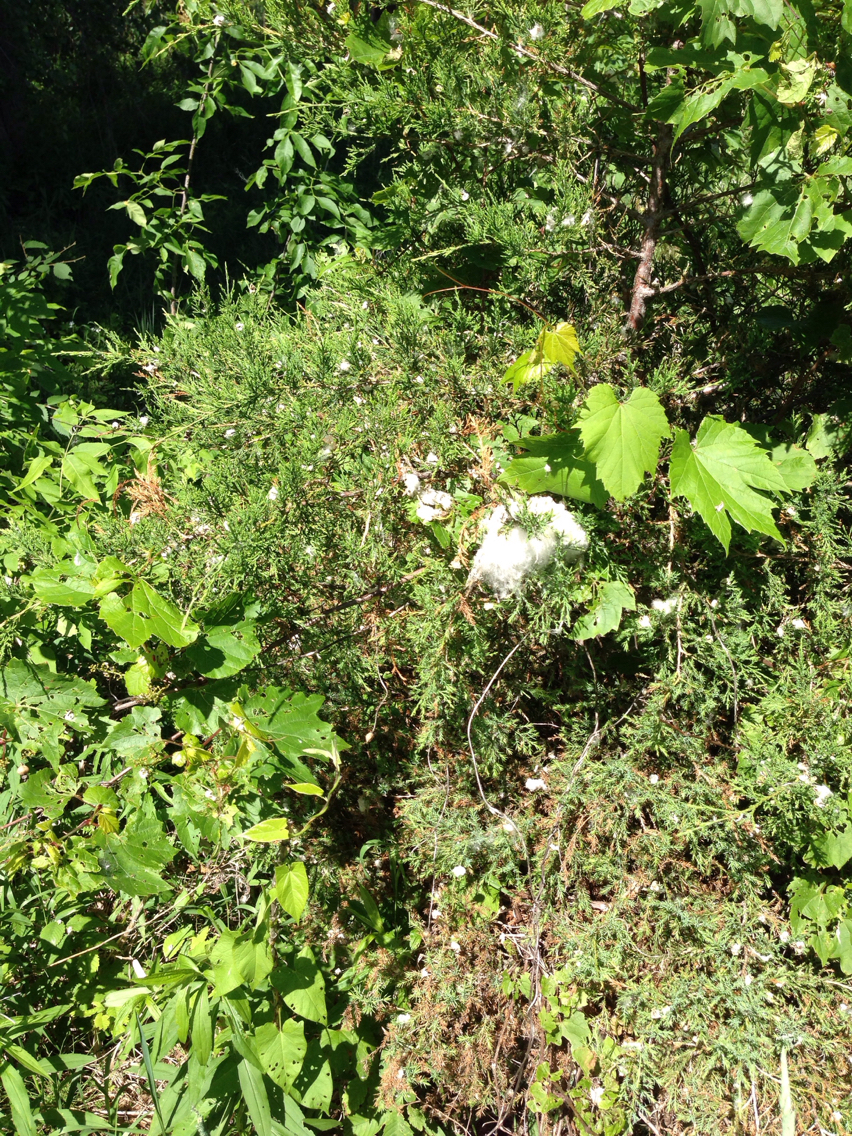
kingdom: Plantae
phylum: Tracheophyta
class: Pinopsida
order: Pinales
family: Cupressaceae
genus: Juniperus
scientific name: Juniperus virginiana
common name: Red juniper
